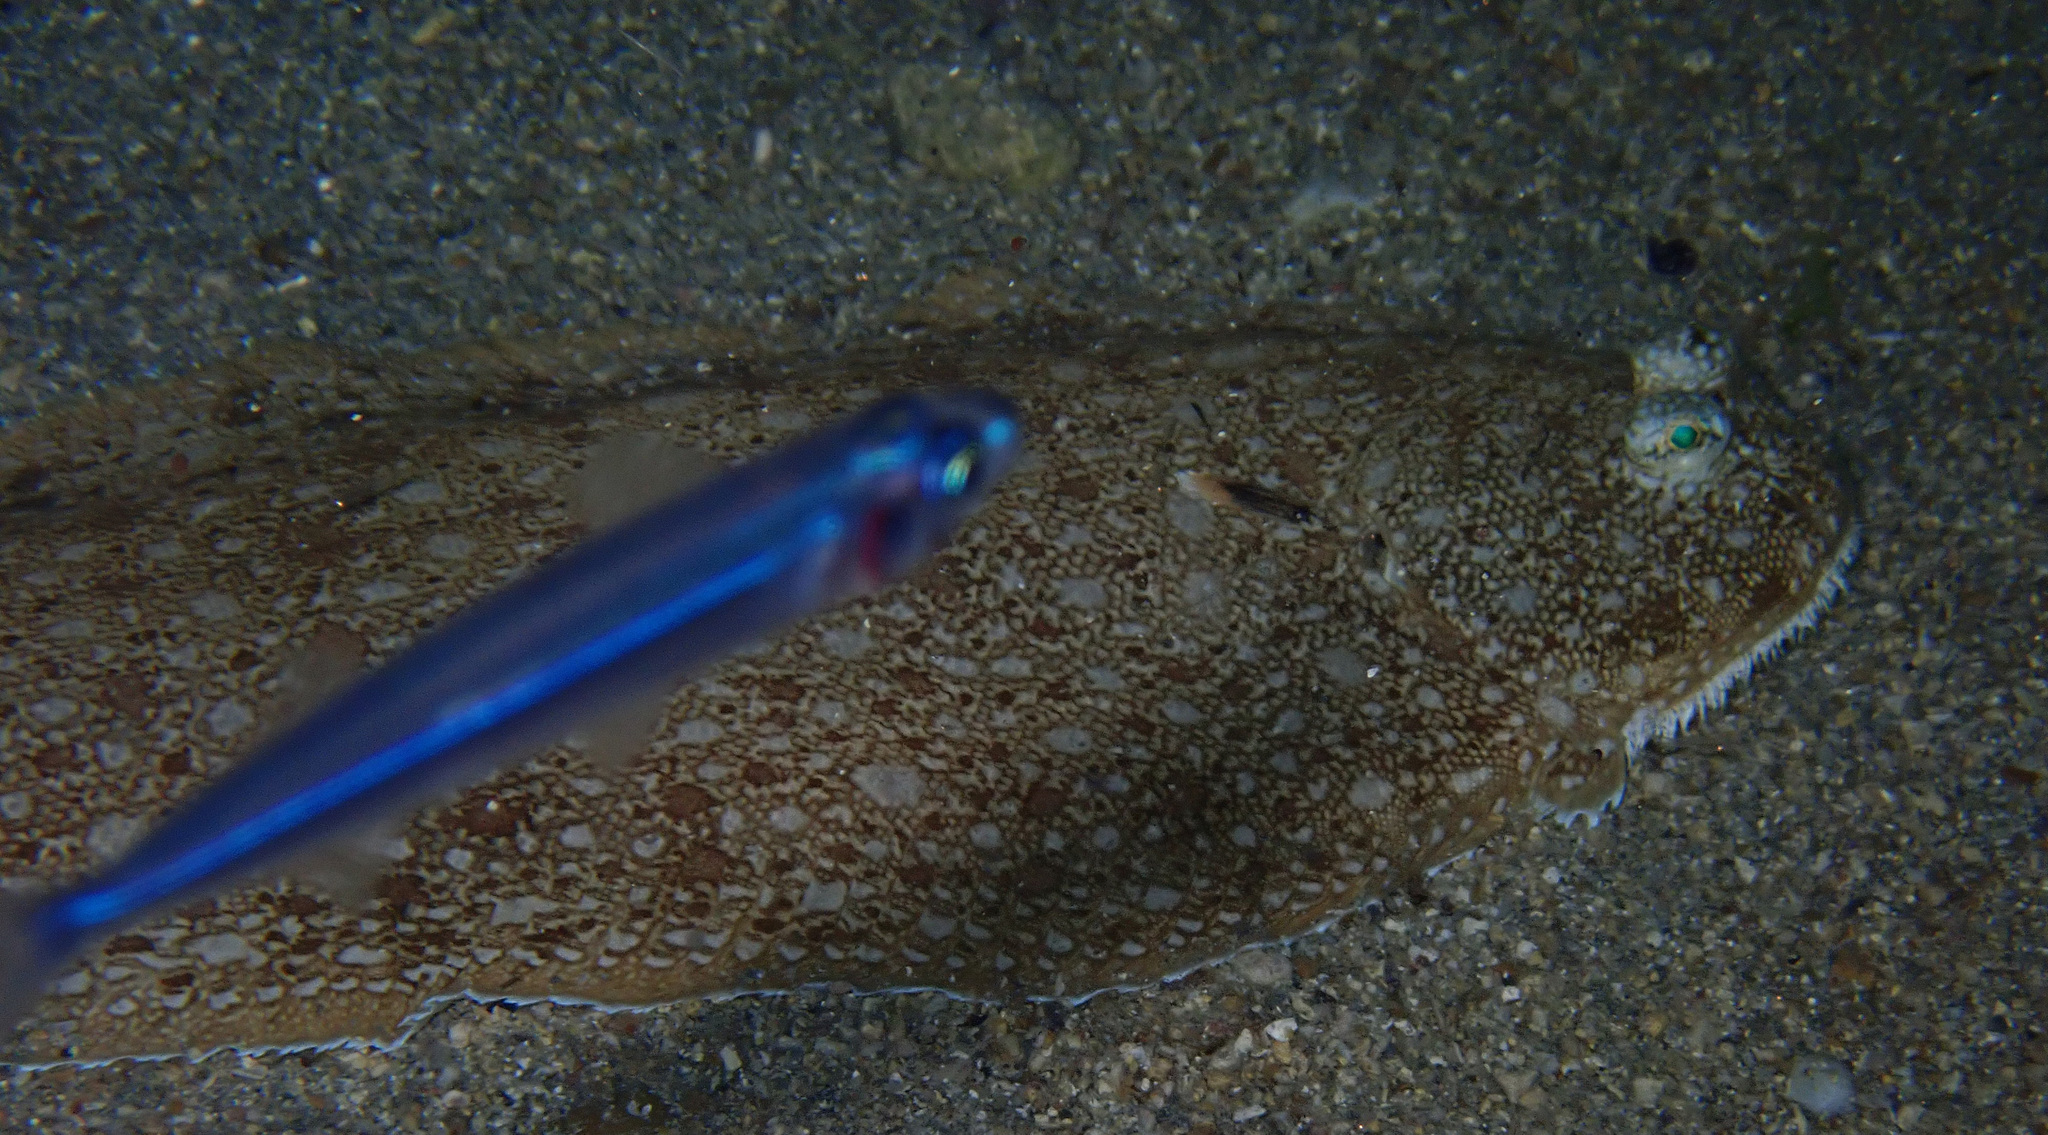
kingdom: Animalia
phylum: Chordata
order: Pleuronectiformes
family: Soleidae
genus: Synapturichthys
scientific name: Synapturichthys kleinii
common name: Klein's sole
